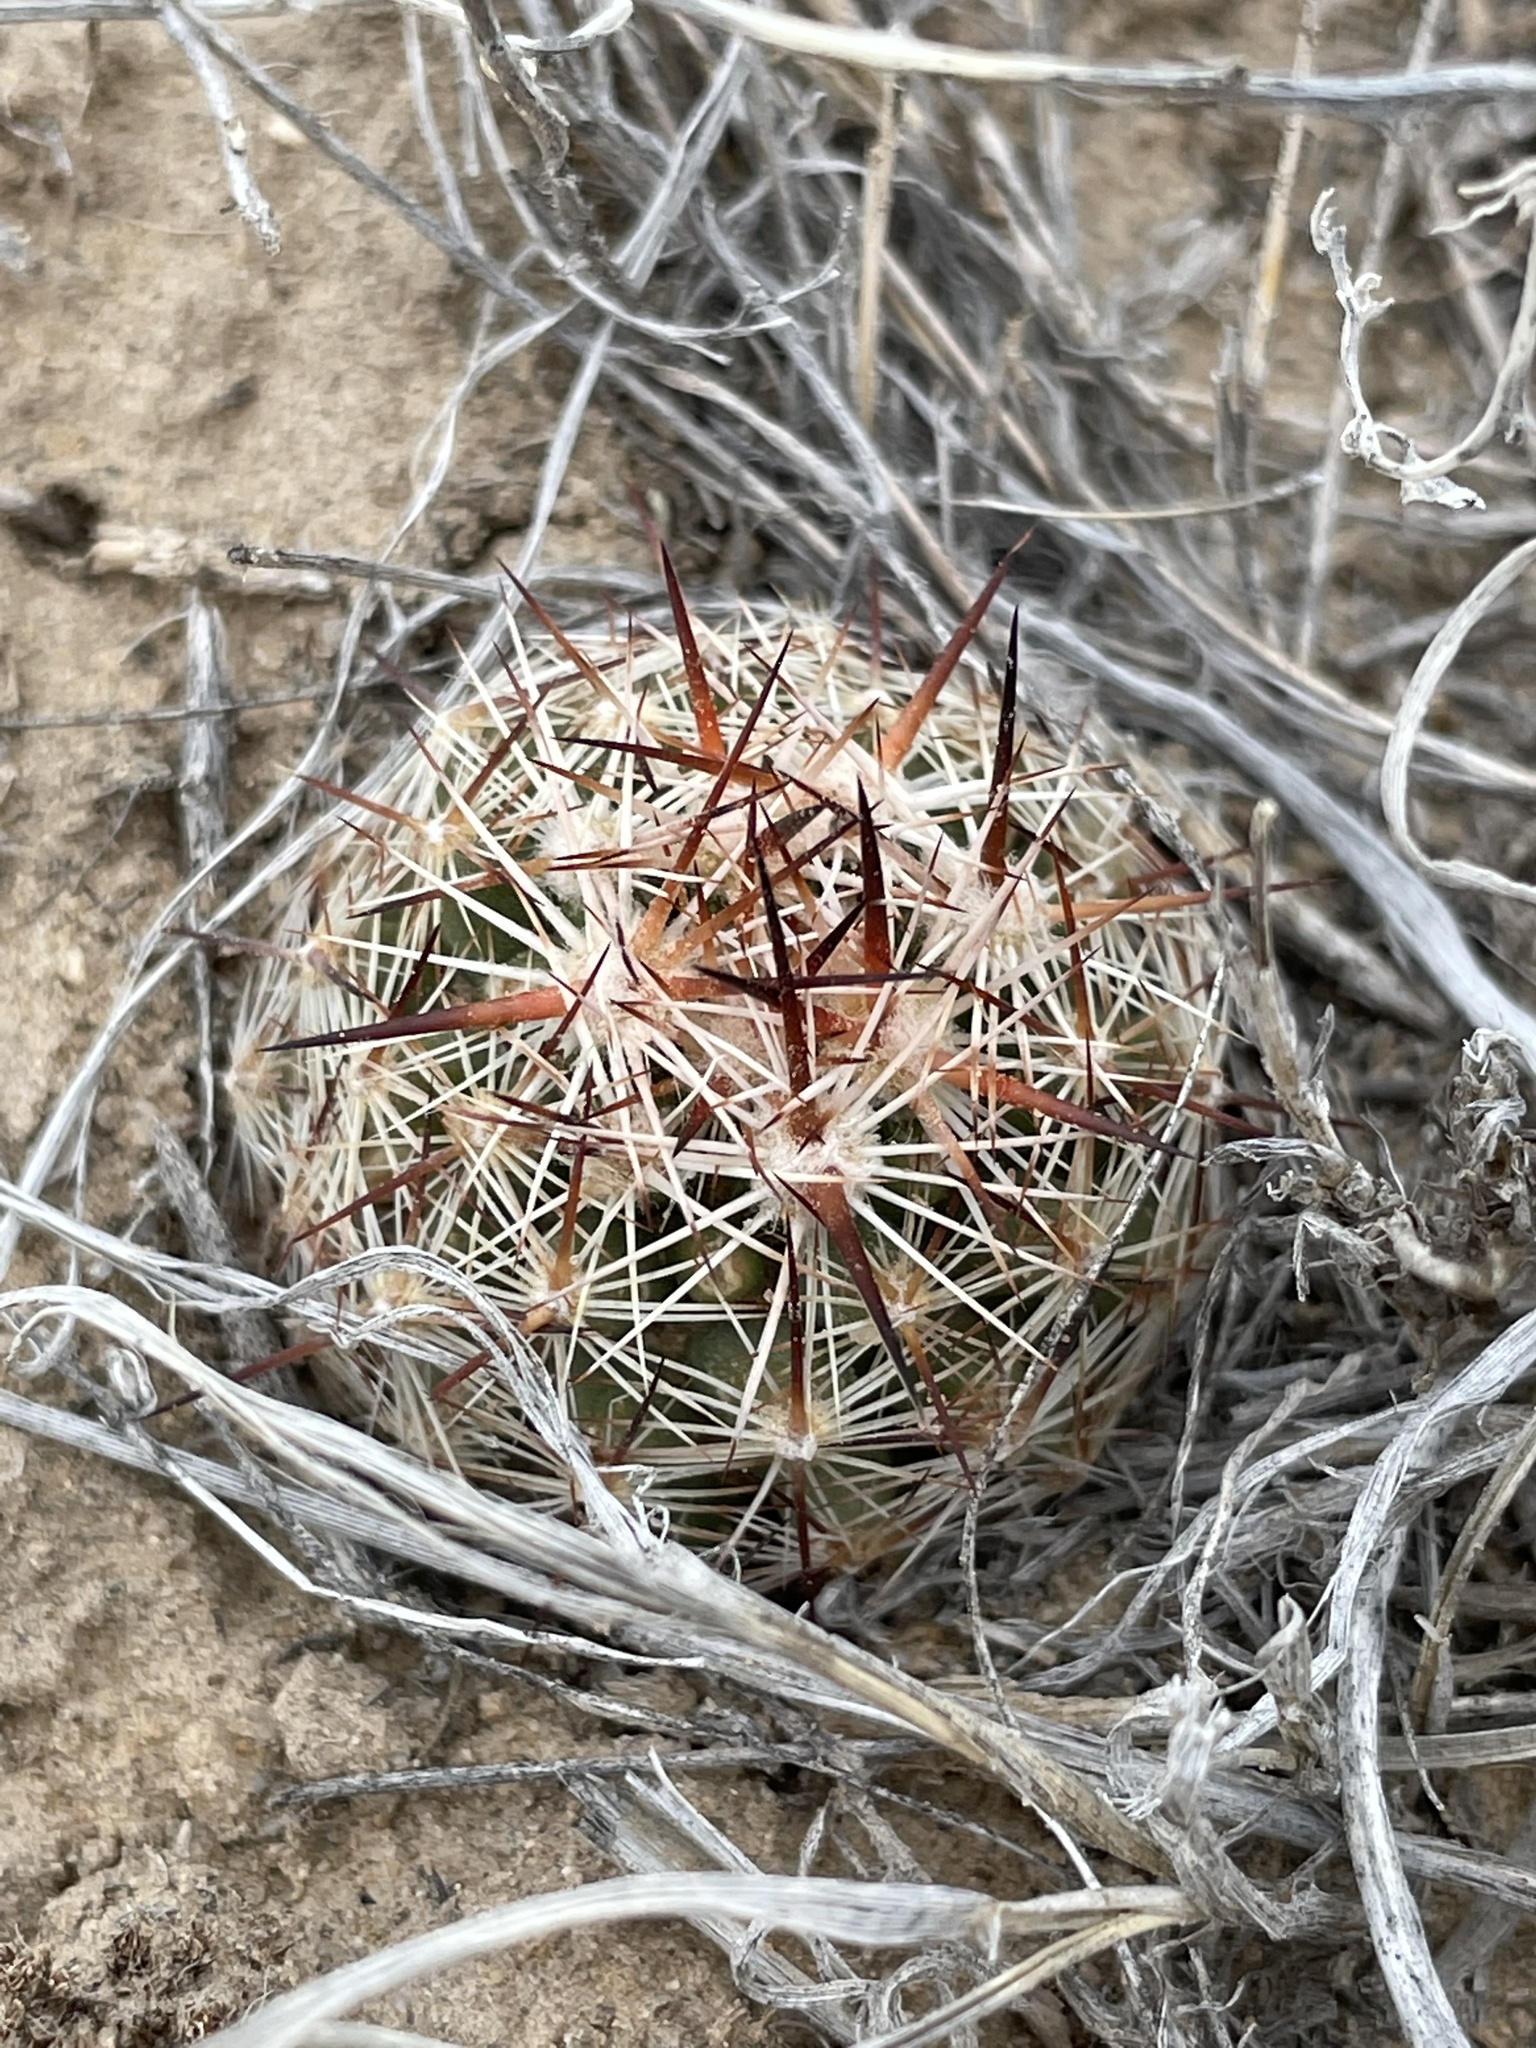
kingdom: Plantae
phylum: Tracheophyta
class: Magnoliopsida
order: Caryophyllales
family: Cactaceae
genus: Pelecyphora
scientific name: Pelecyphora vivipara
